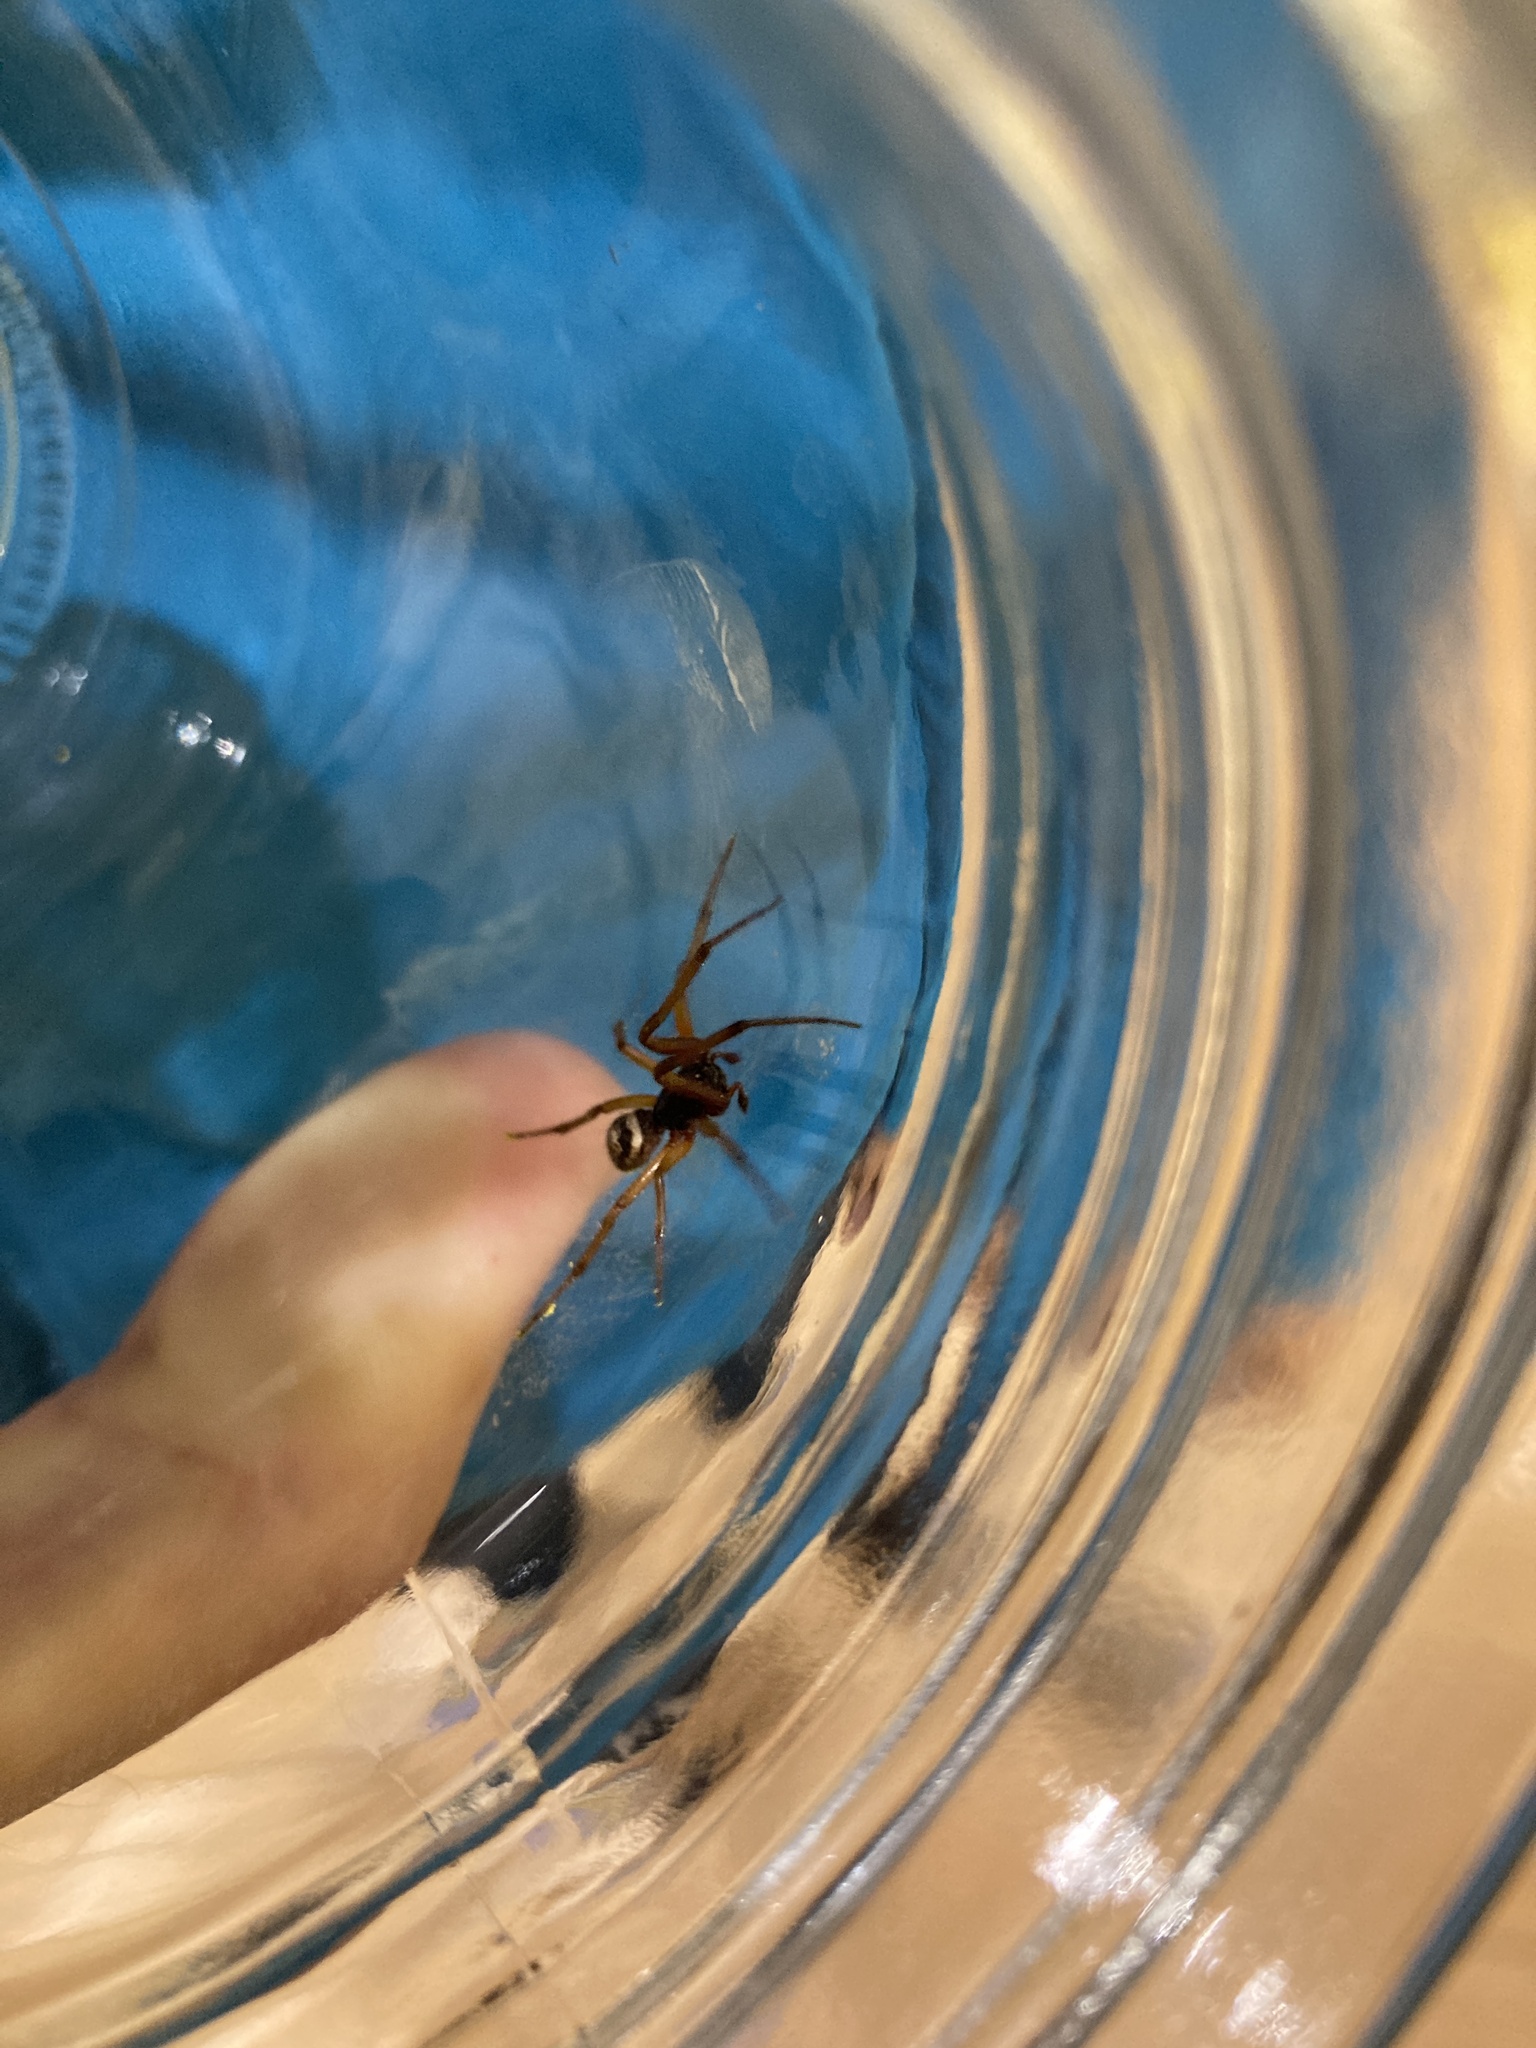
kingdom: Animalia
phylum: Arthropoda
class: Arachnida
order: Araneae
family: Theridiidae
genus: Steatoda
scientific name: Steatoda nobilis
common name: Cobweb weaver
